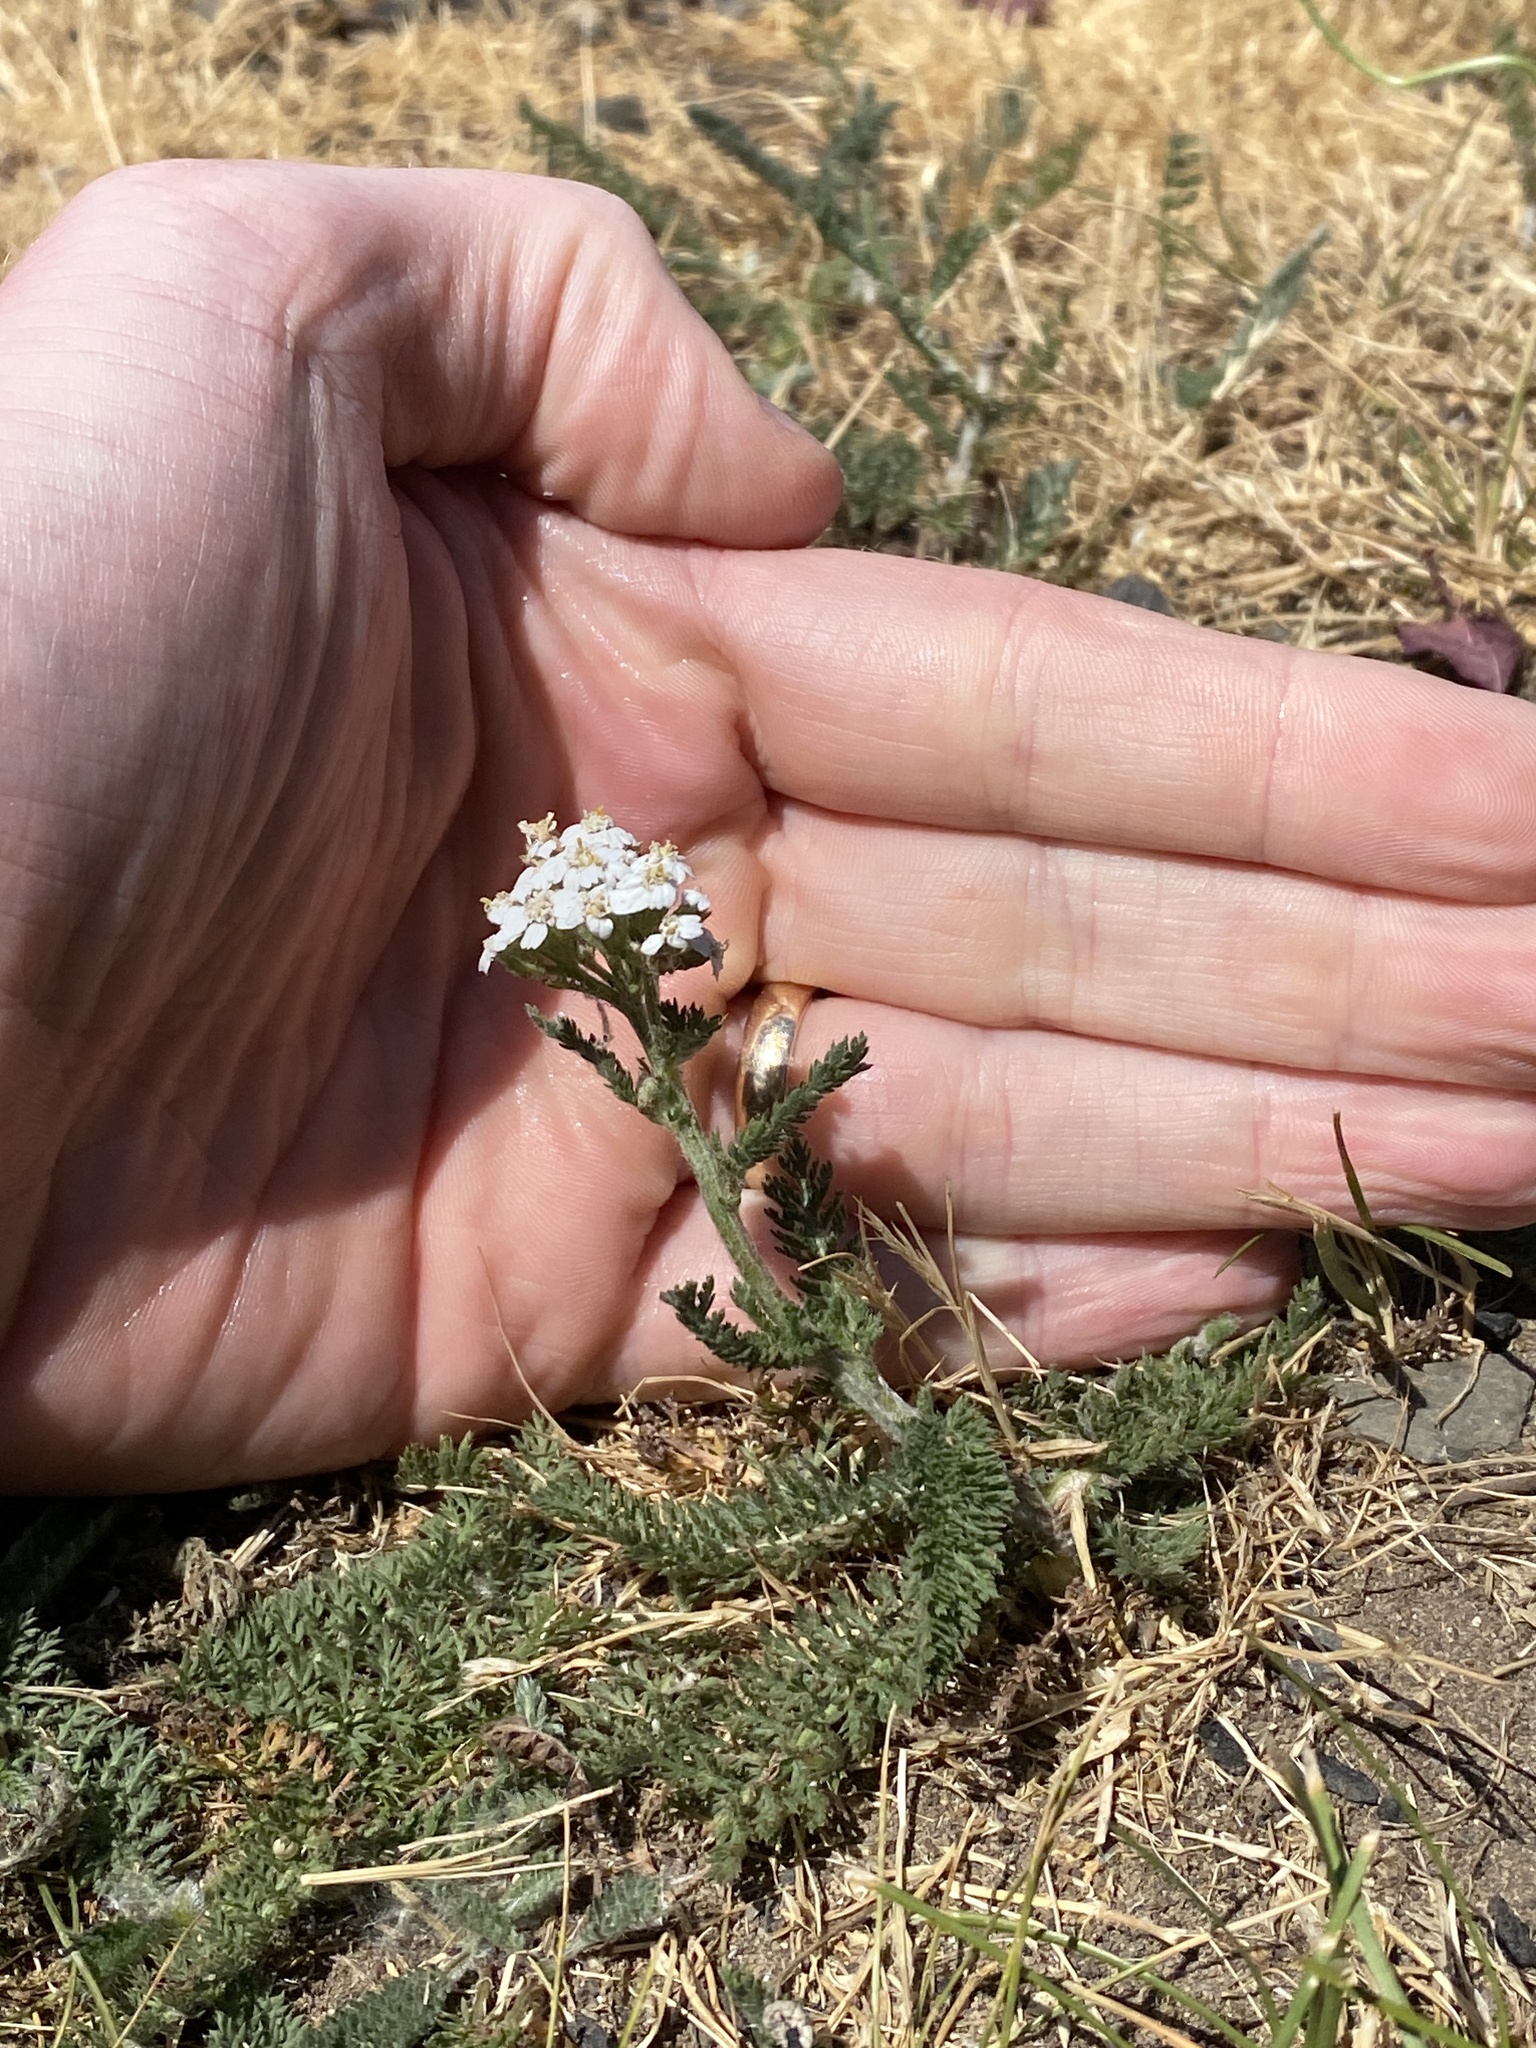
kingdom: Plantae
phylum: Tracheophyta
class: Magnoliopsida
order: Asterales
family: Asteraceae
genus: Achillea
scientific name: Achillea millefolium
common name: Yarrow
